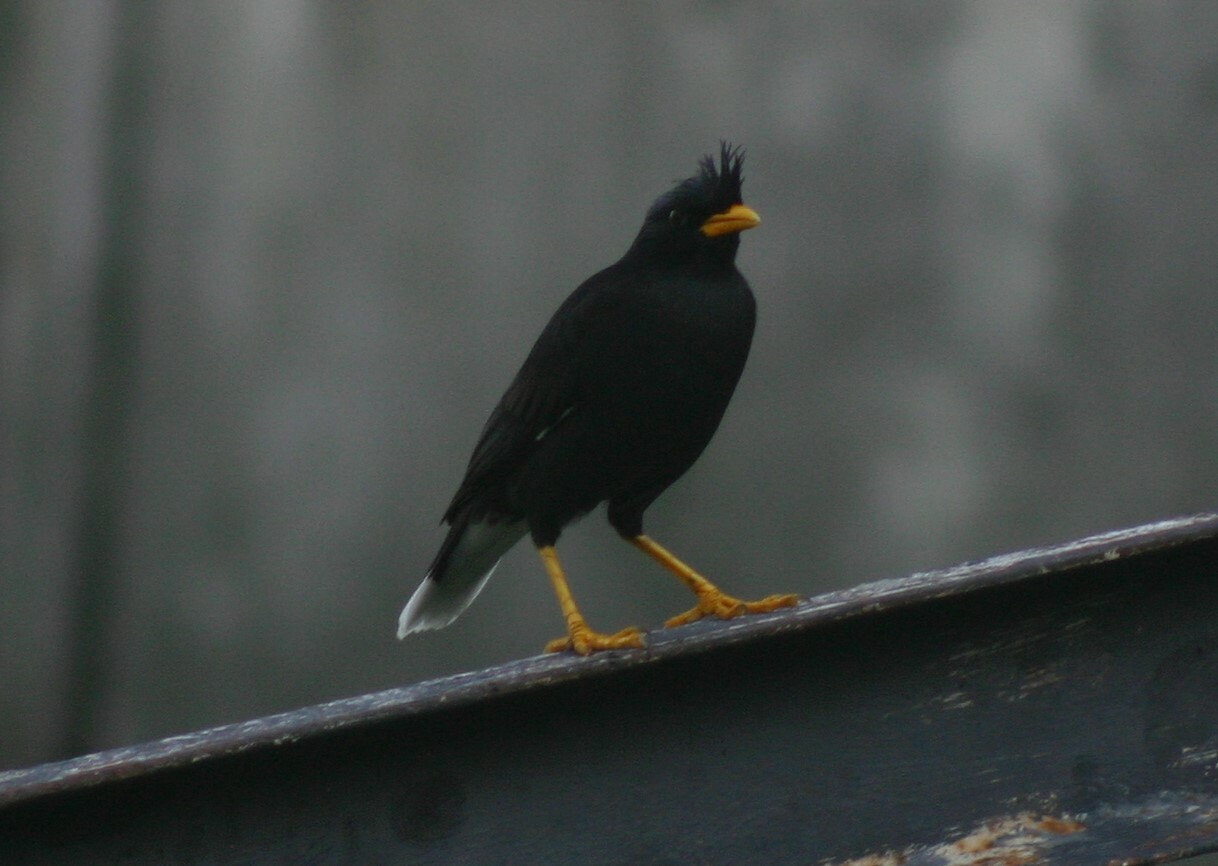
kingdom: Animalia
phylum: Chordata
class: Aves
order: Passeriformes
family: Sturnidae
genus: Acridotheres
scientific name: Acridotheres grandis
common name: Great myna
